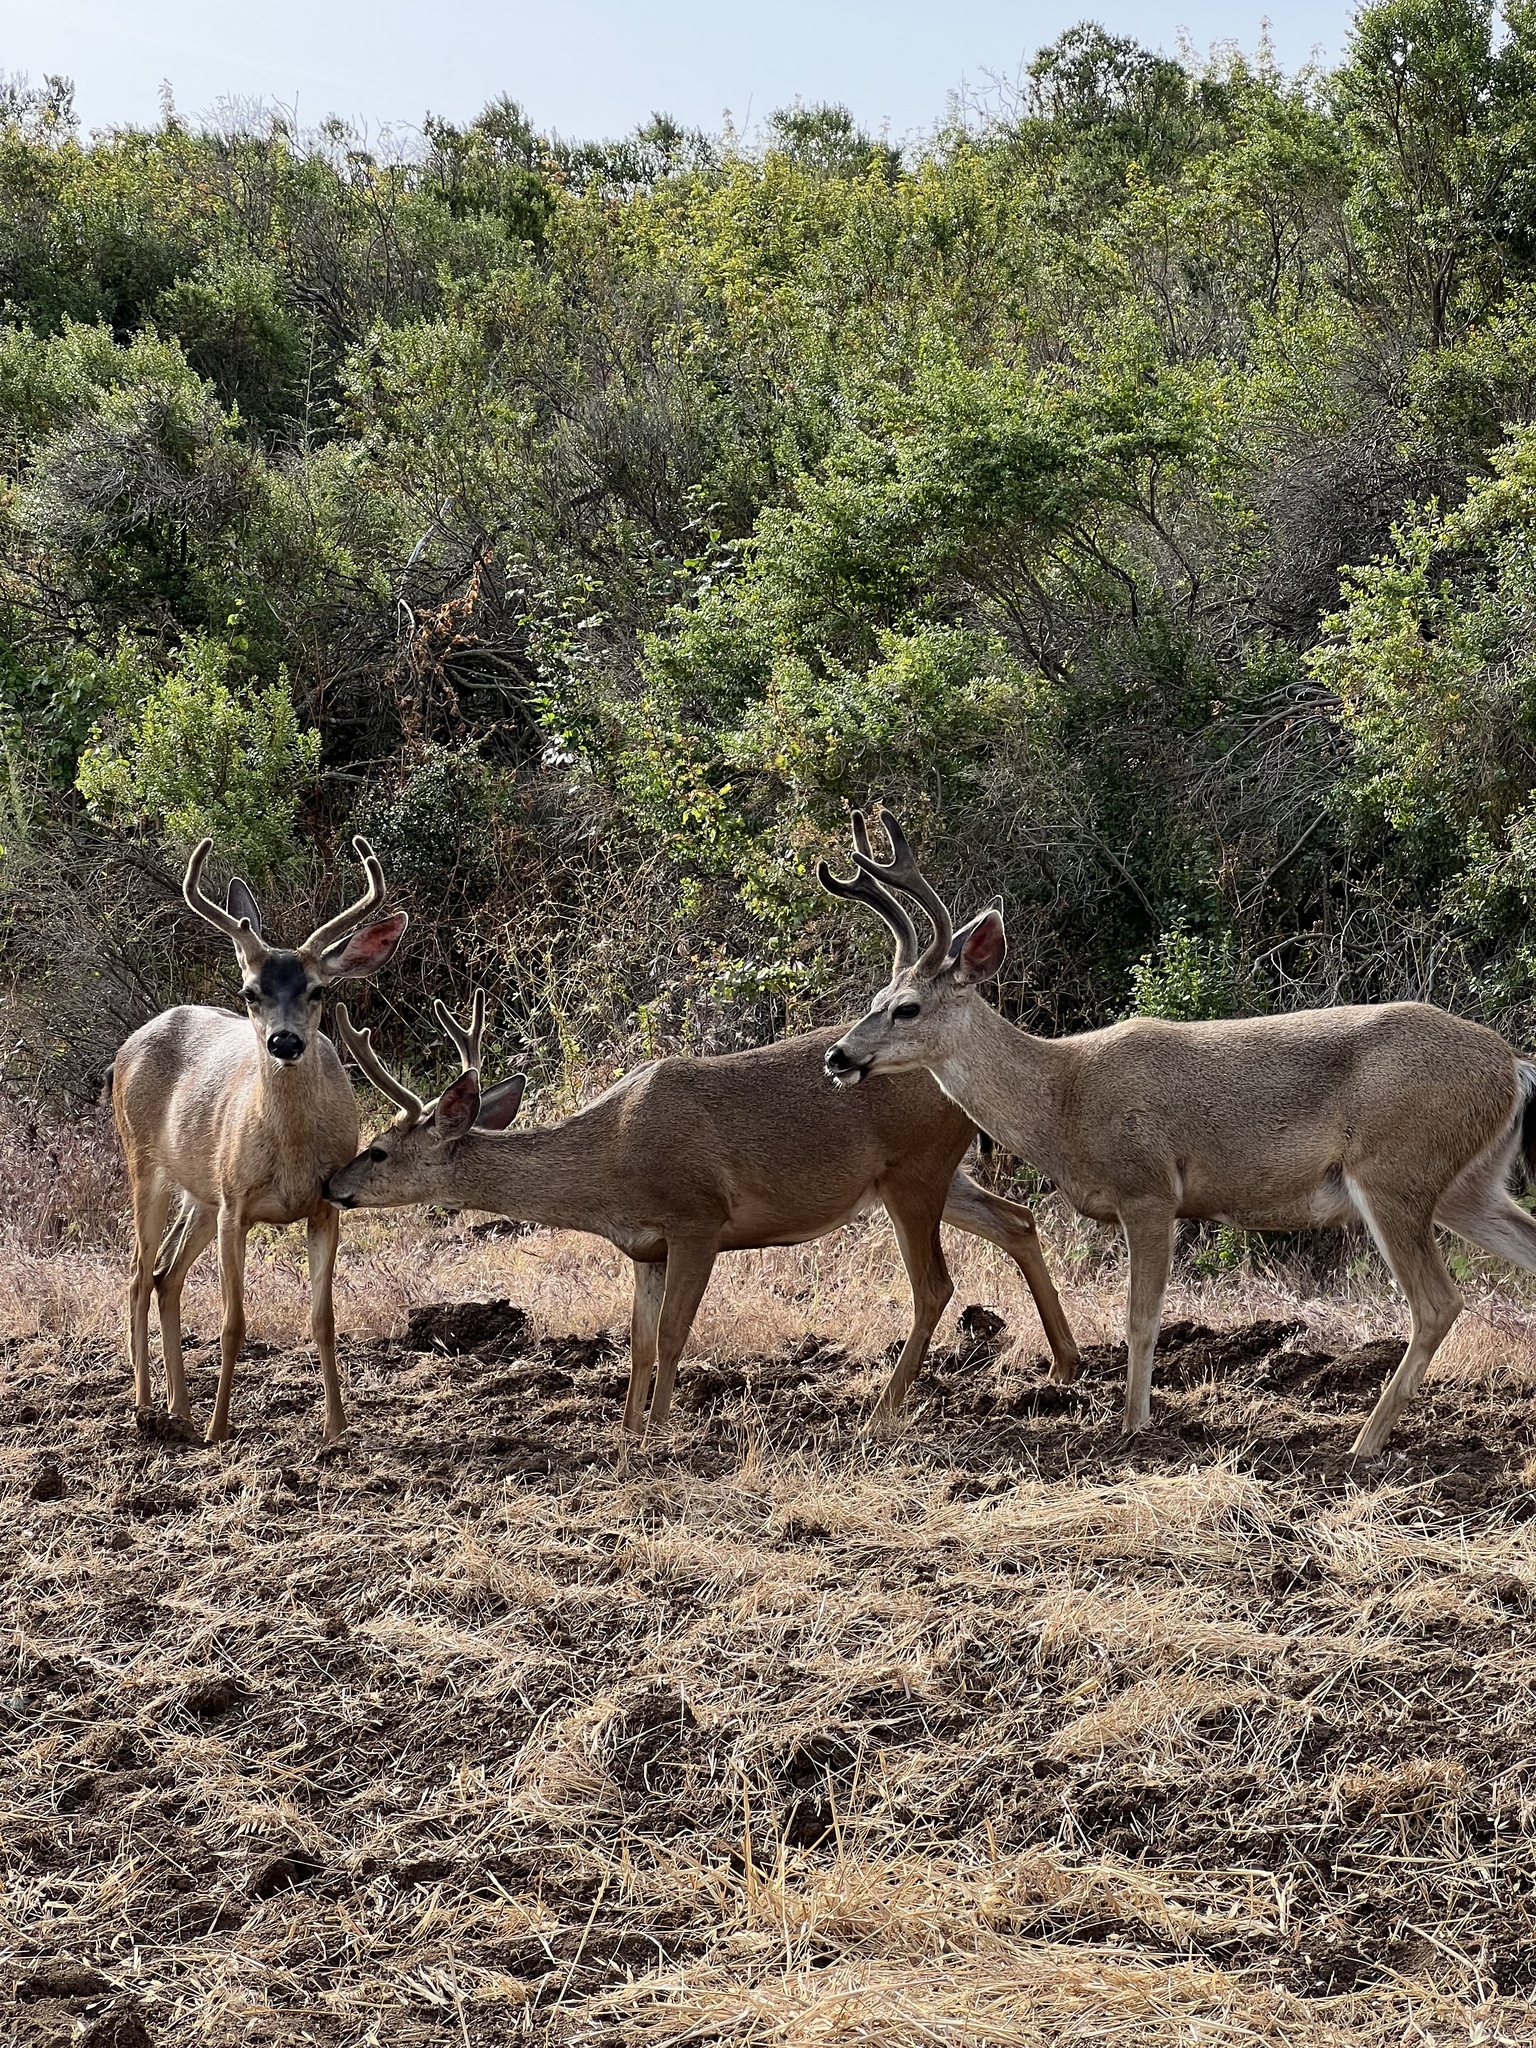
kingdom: Animalia
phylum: Chordata
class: Mammalia
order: Artiodactyla
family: Cervidae
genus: Odocoileus
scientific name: Odocoileus hemionus
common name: Mule deer
